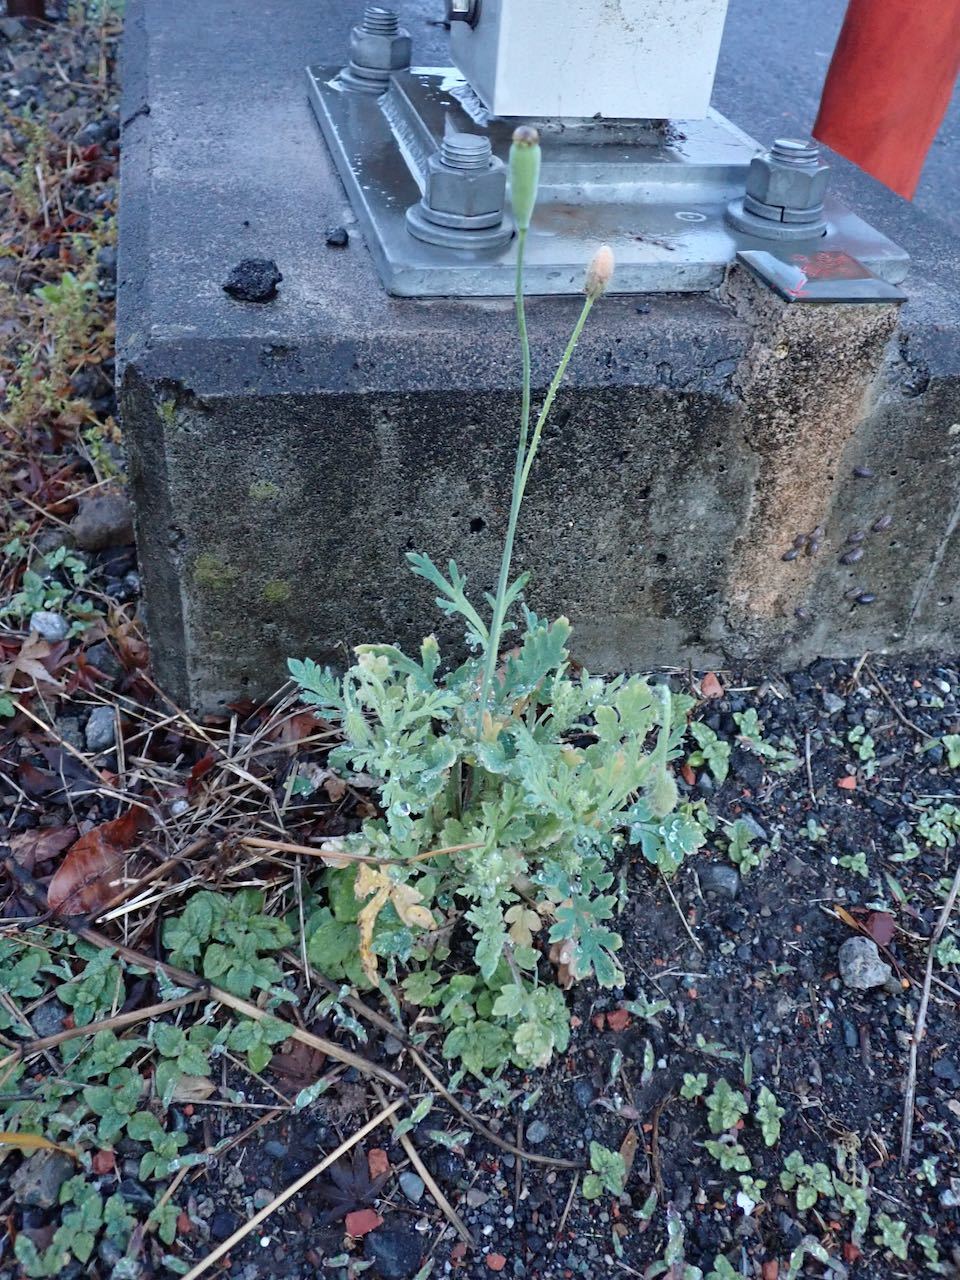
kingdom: Plantae
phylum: Tracheophyta
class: Magnoliopsida
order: Ranunculales
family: Papaveraceae
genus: Papaver
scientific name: Papaver dubium
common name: Long-headed poppy
